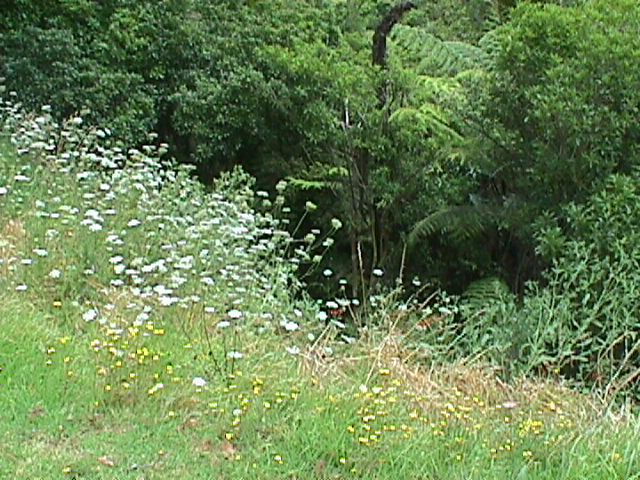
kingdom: Plantae
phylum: Tracheophyta
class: Magnoliopsida
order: Apiales
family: Apiaceae
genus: Daucus
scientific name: Daucus carota
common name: Wild carrot
